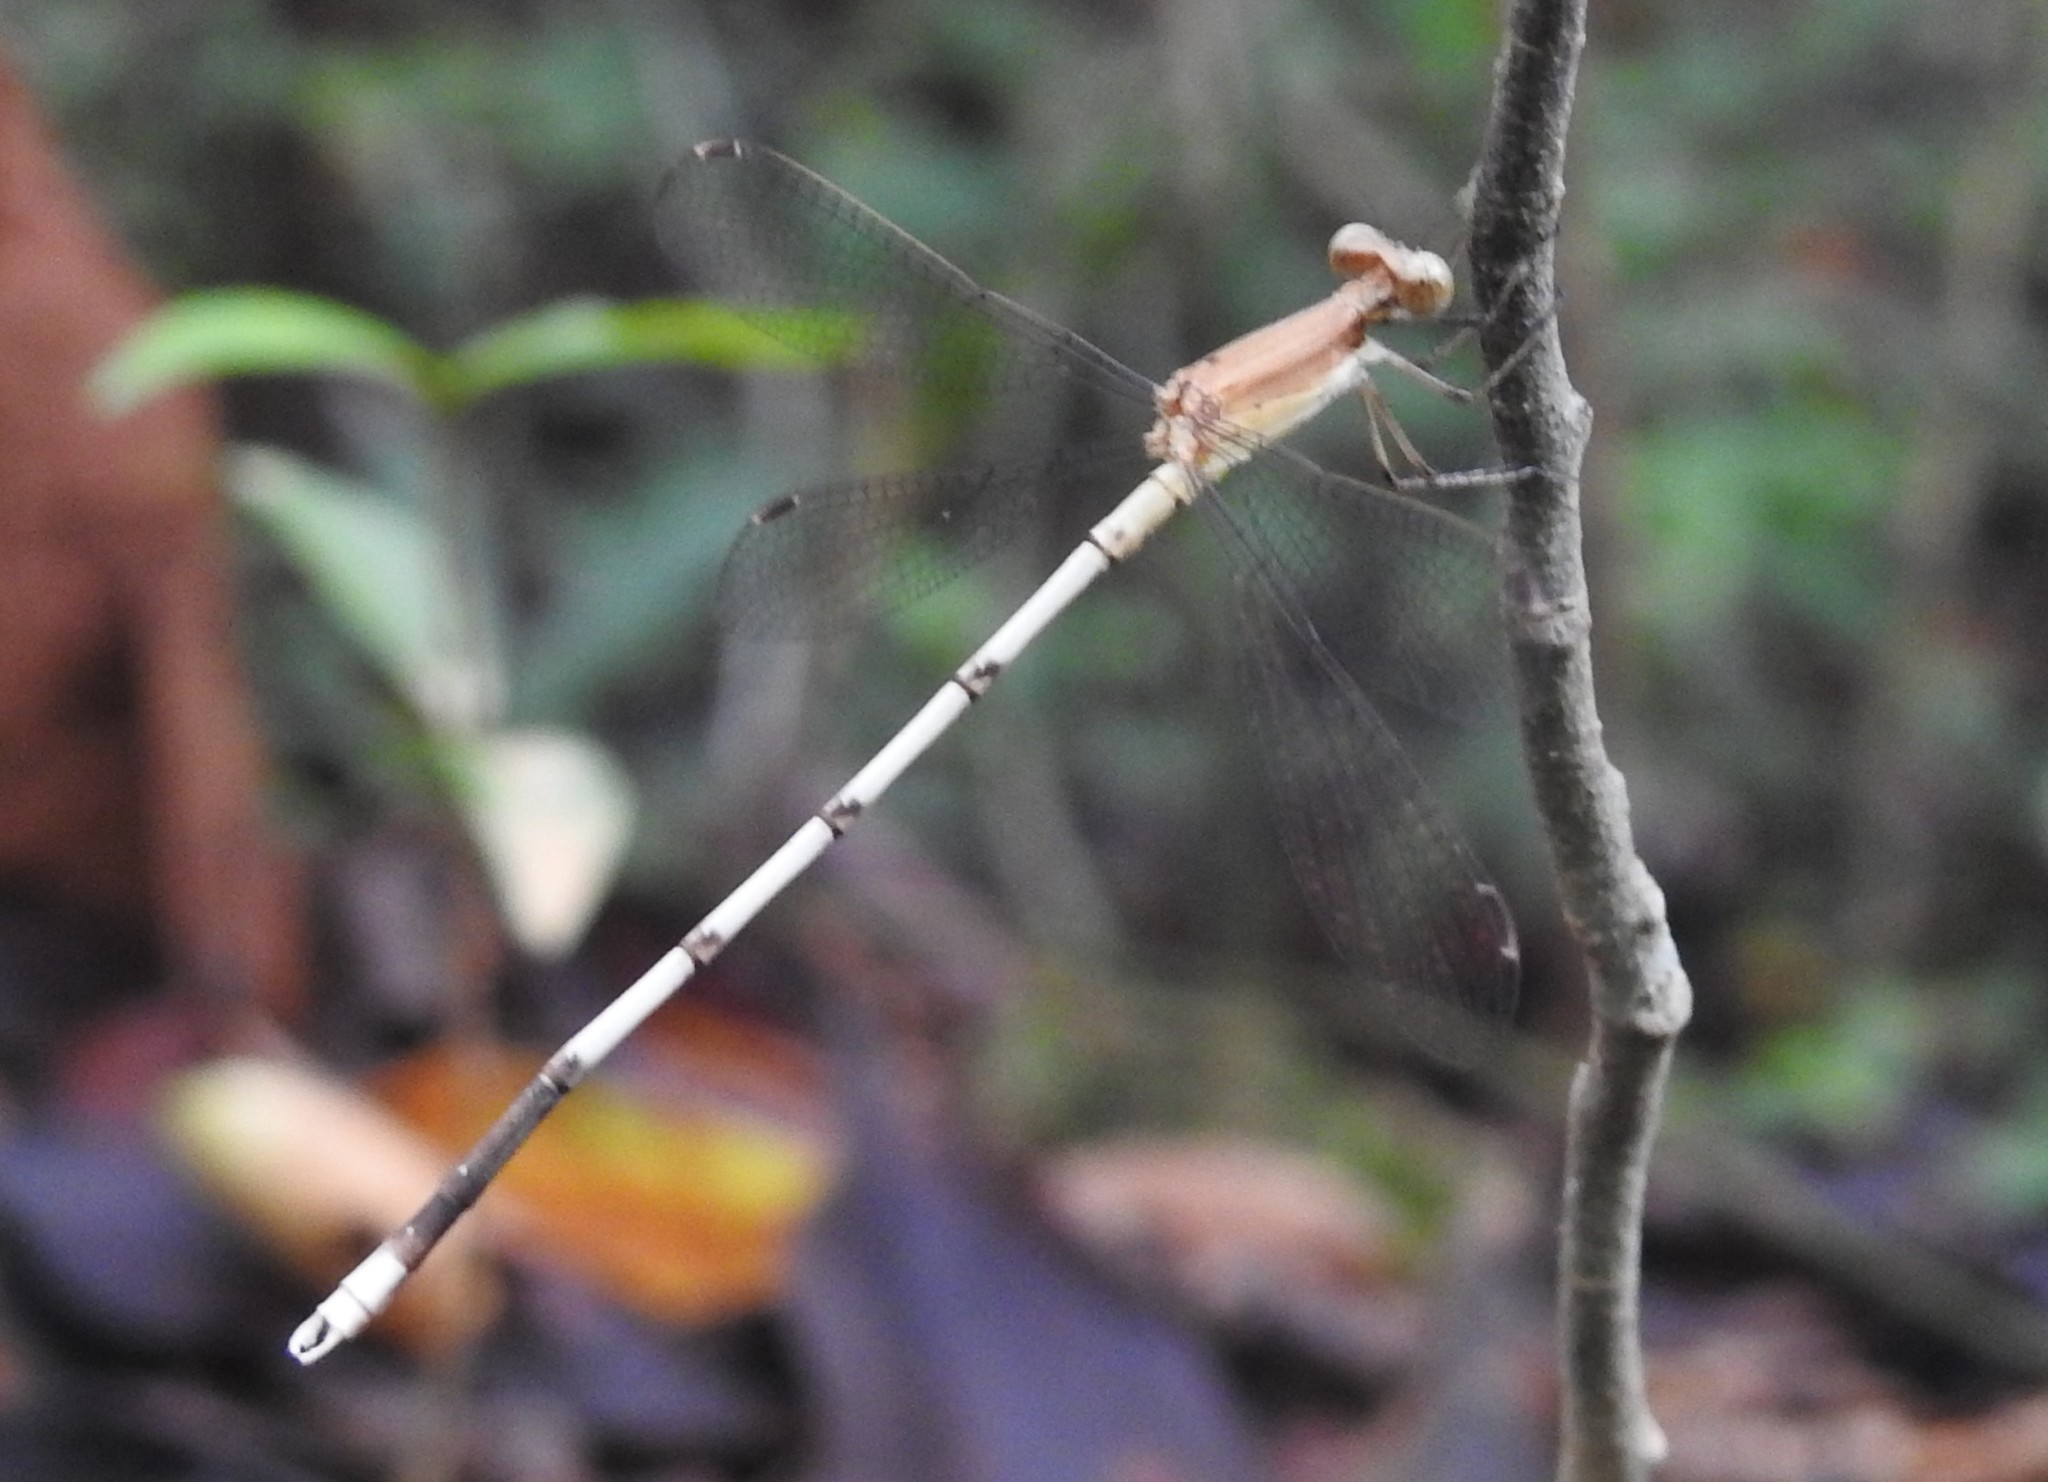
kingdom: Animalia
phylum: Arthropoda
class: Insecta
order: Odonata
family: Lestidae
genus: Lestes
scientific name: Lestes nodalis
